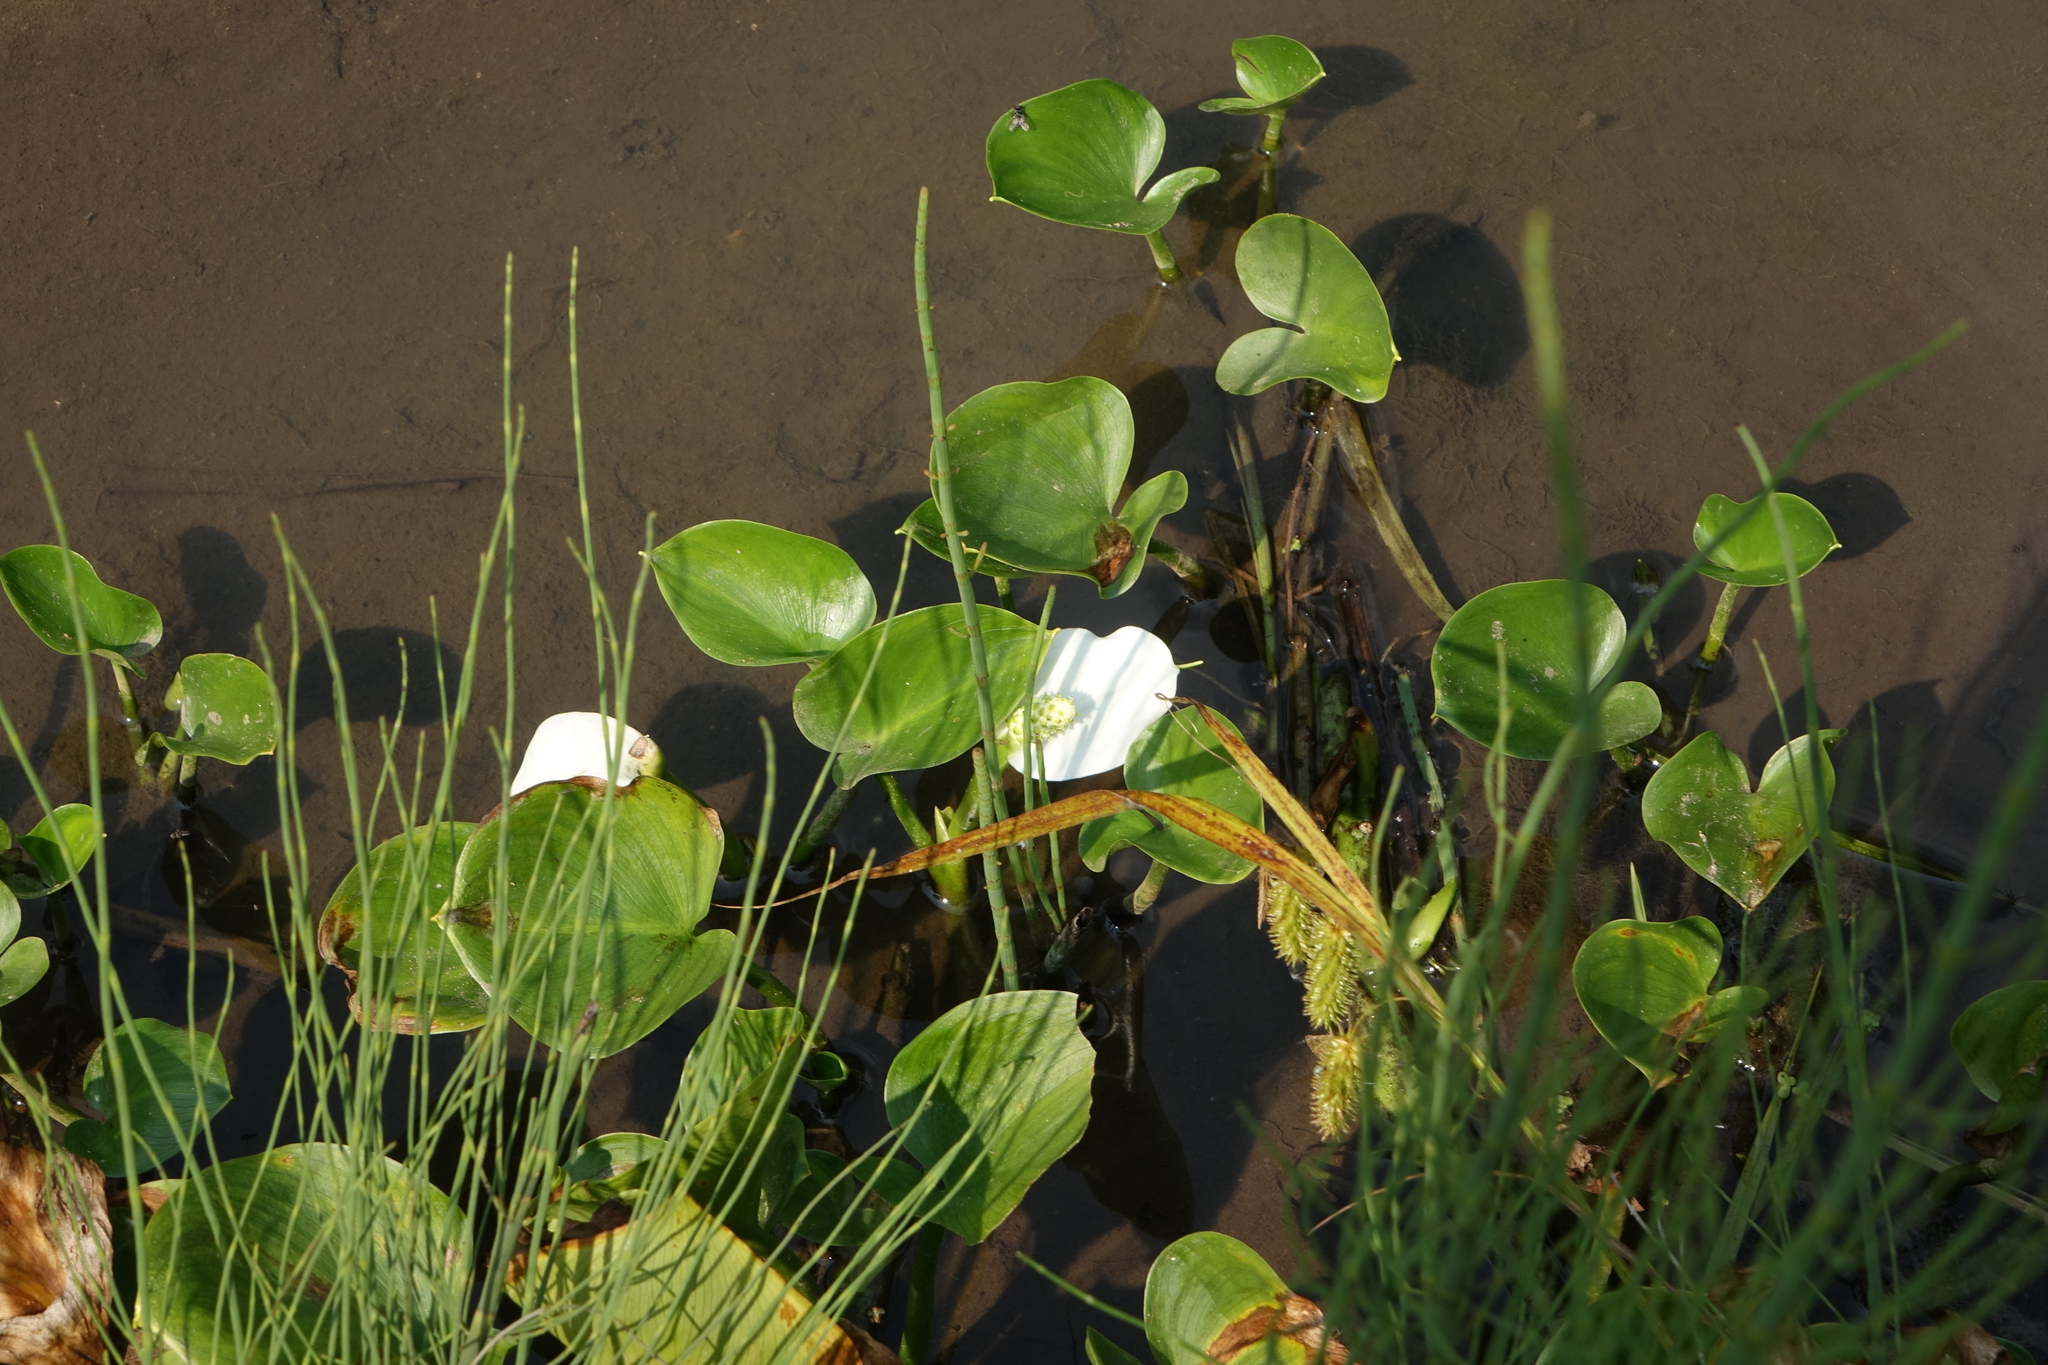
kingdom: Plantae
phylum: Tracheophyta
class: Liliopsida
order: Alismatales
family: Araceae
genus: Calla
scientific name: Calla palustris
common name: Bog arum
